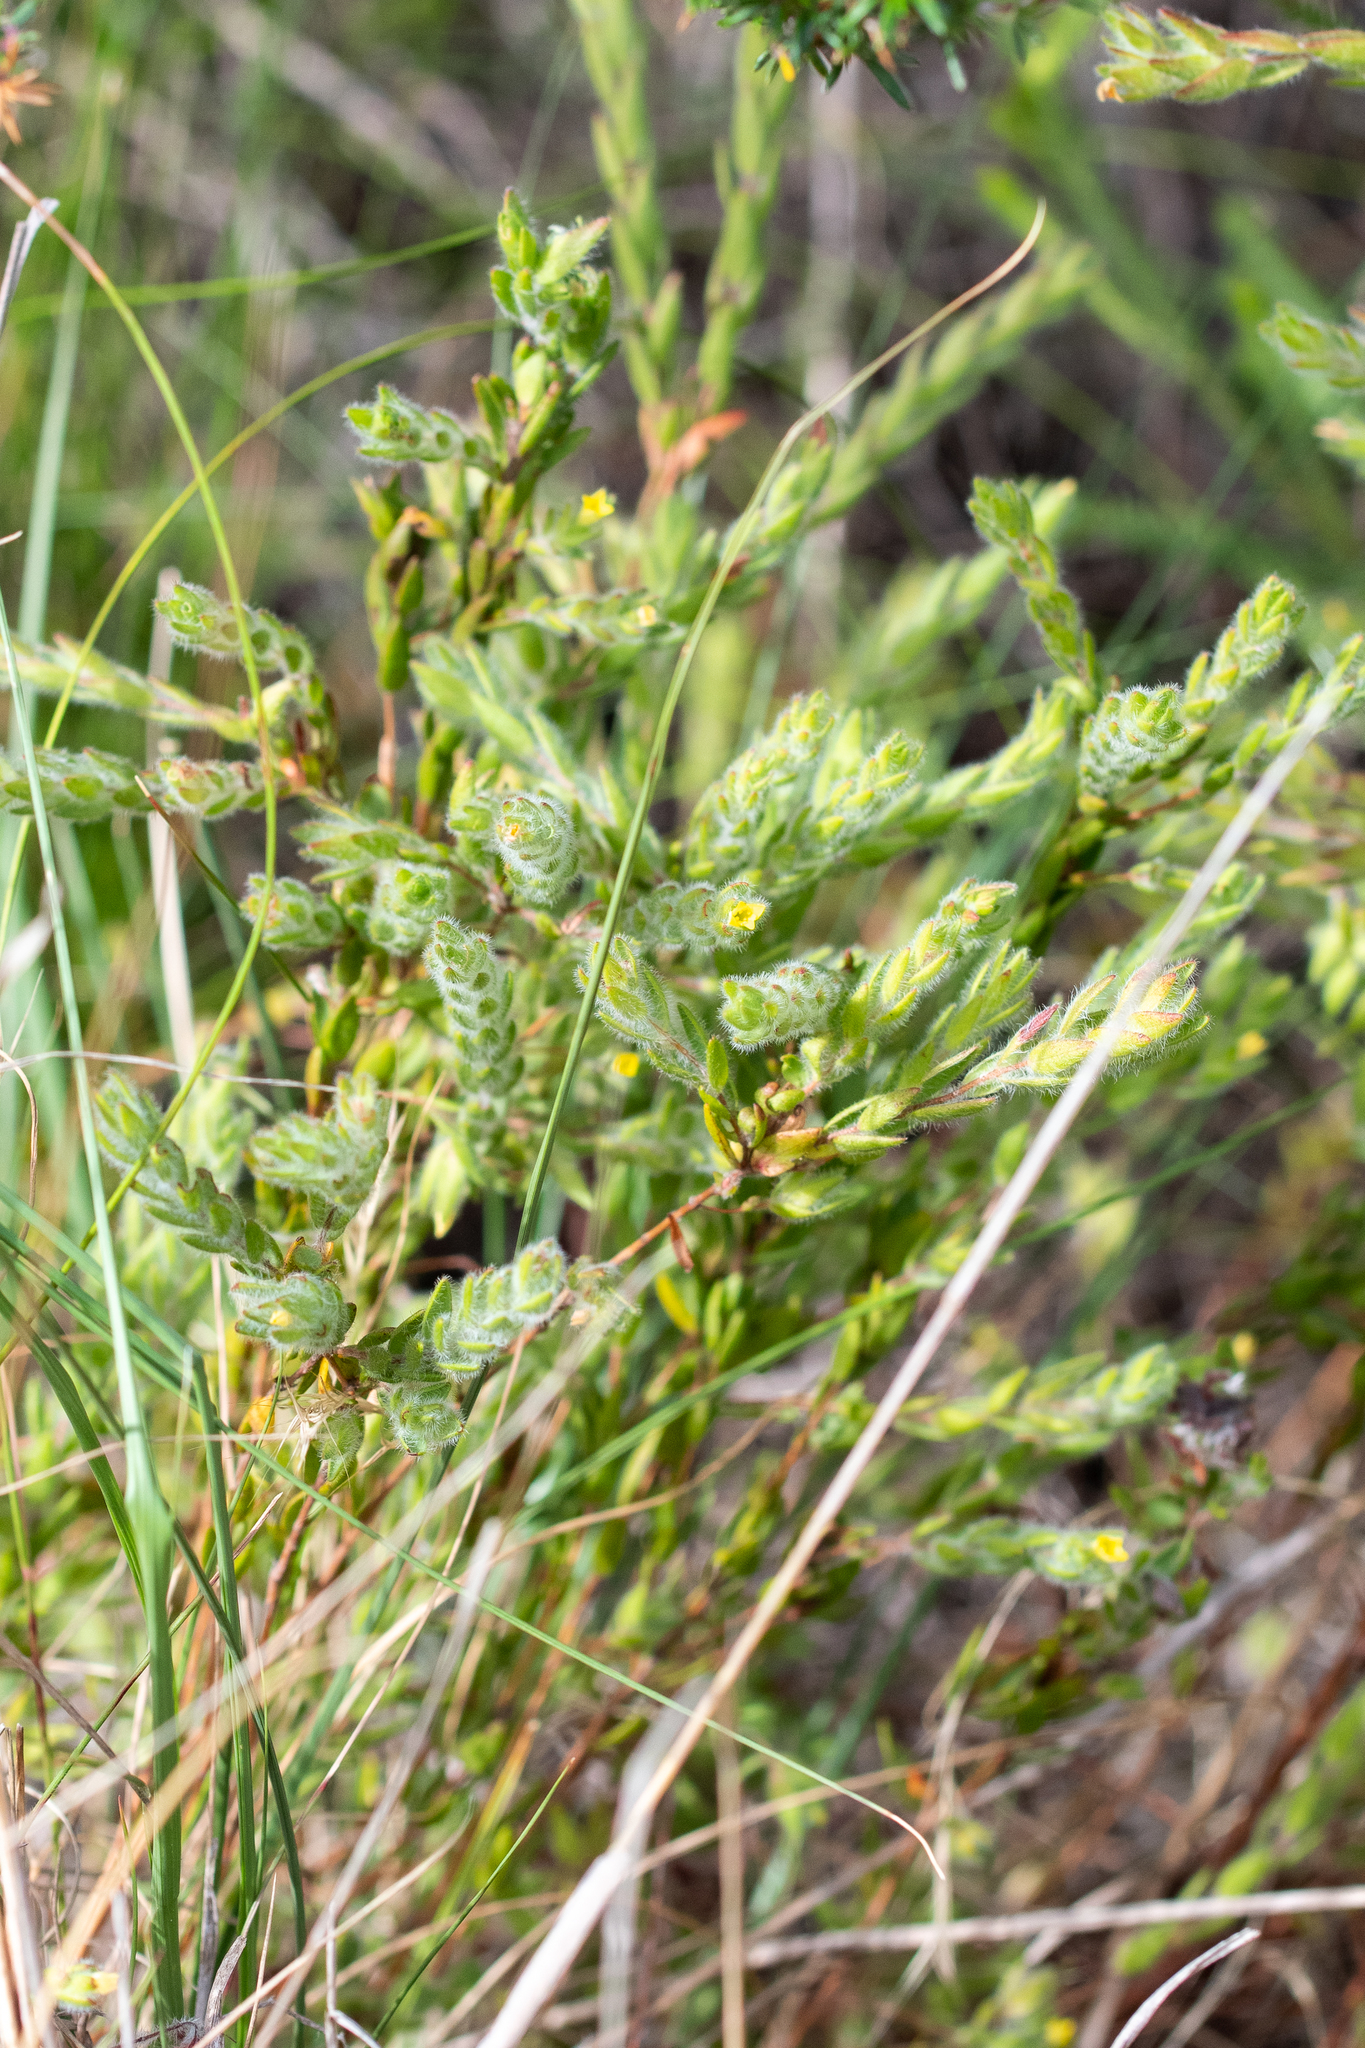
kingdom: Plantae
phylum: Tracheophyta
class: Magnoliopsida
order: Malvales
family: Thymelaeaceae
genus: Gnidia
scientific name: Gnidia humilis
